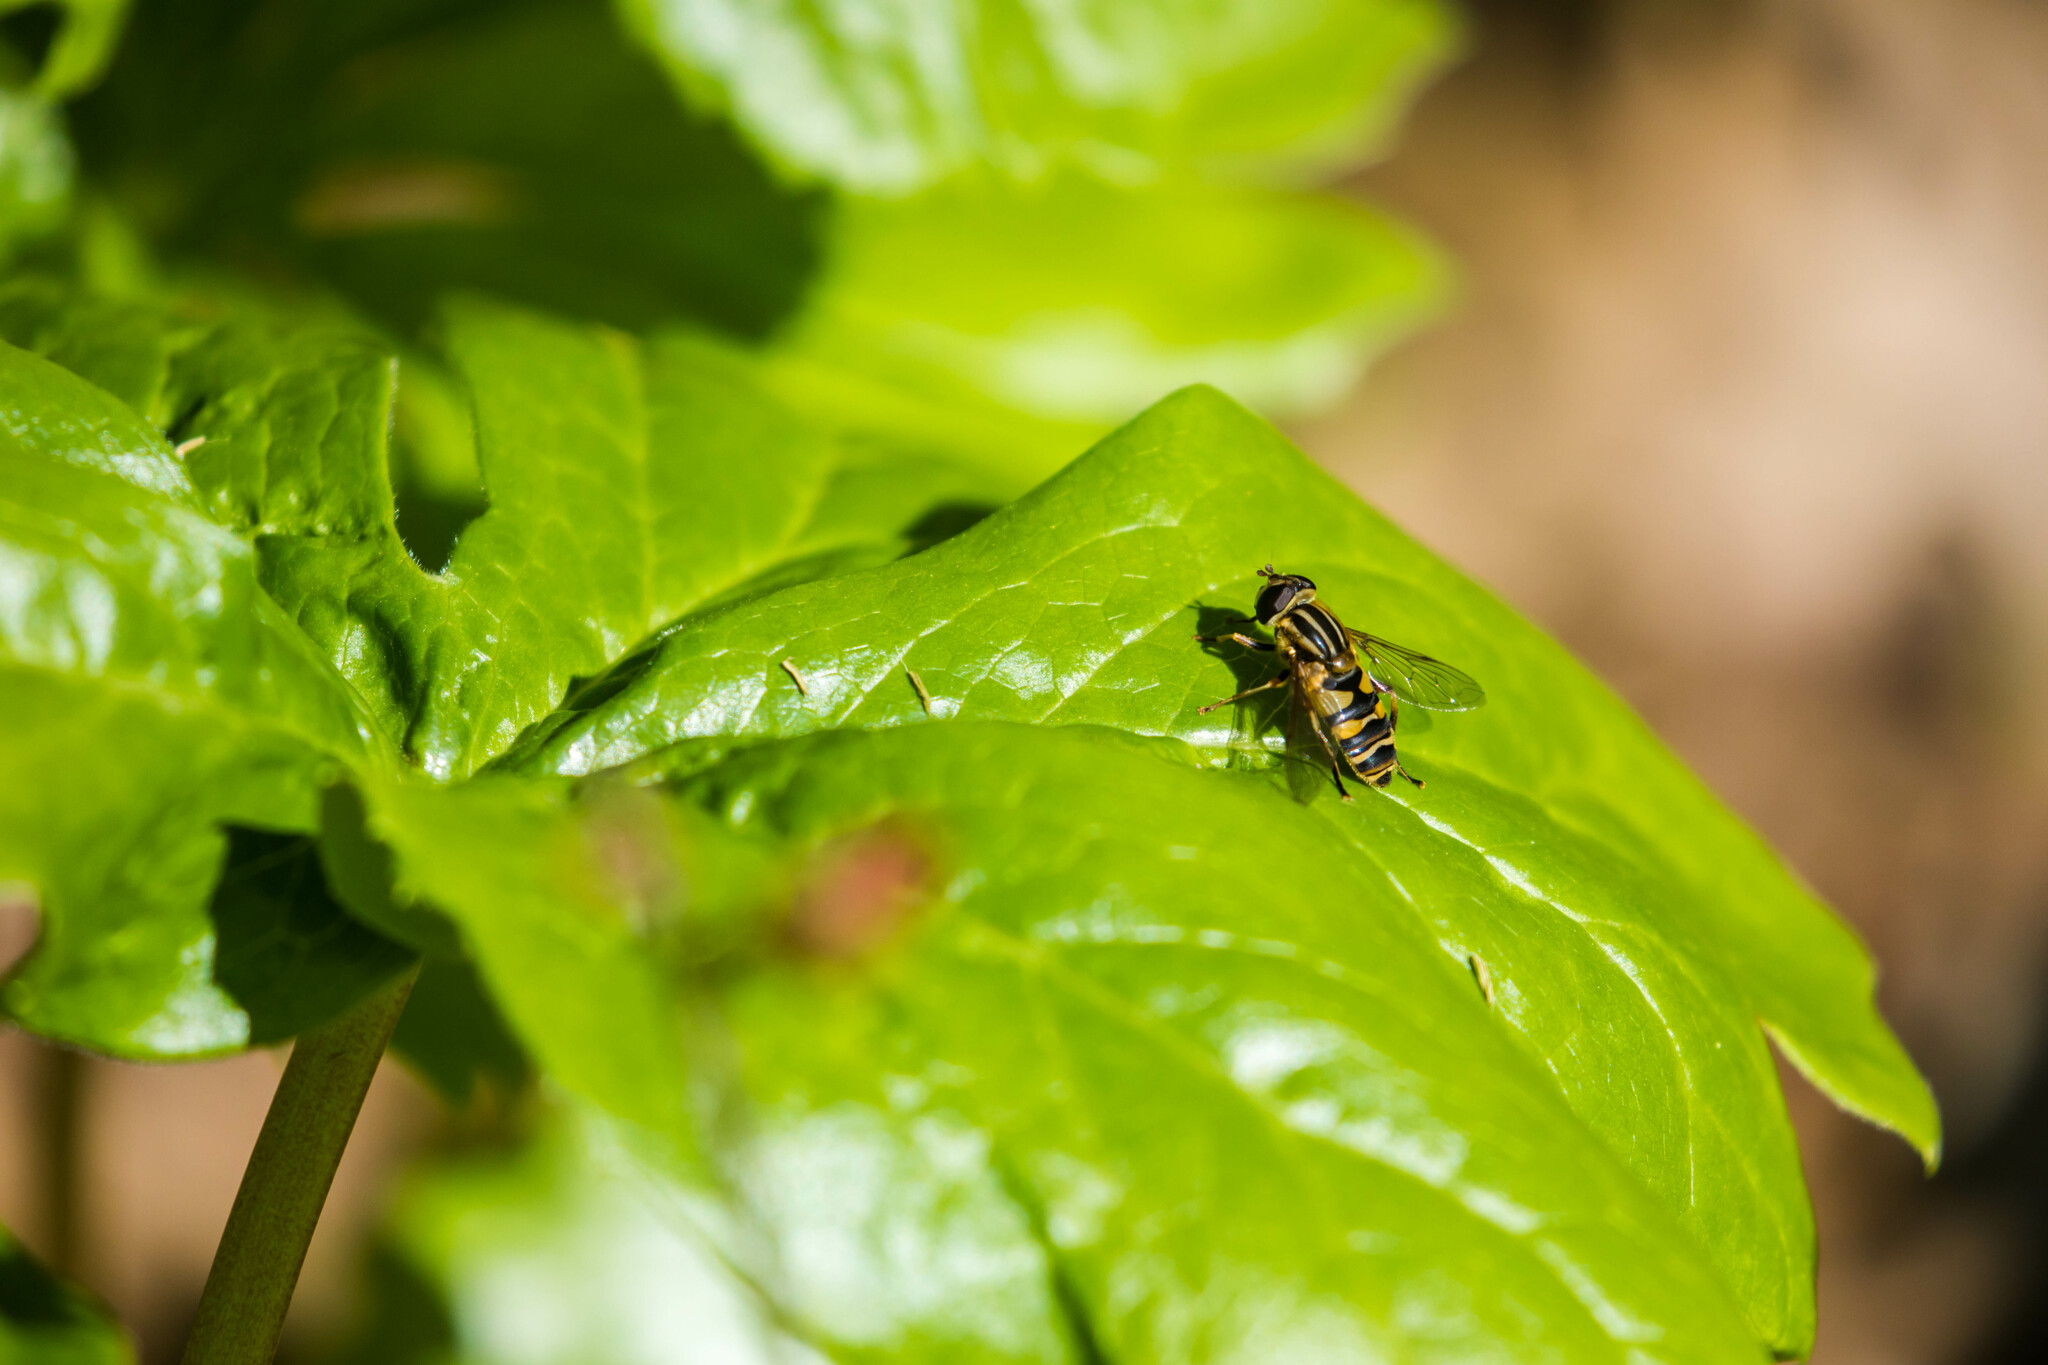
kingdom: Animalia
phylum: Arthropoda
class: Insecta
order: Diptera
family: Syrphidae
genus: Helophilus
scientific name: Helophilus fasciatus
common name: Narrow-headed marsh fly
